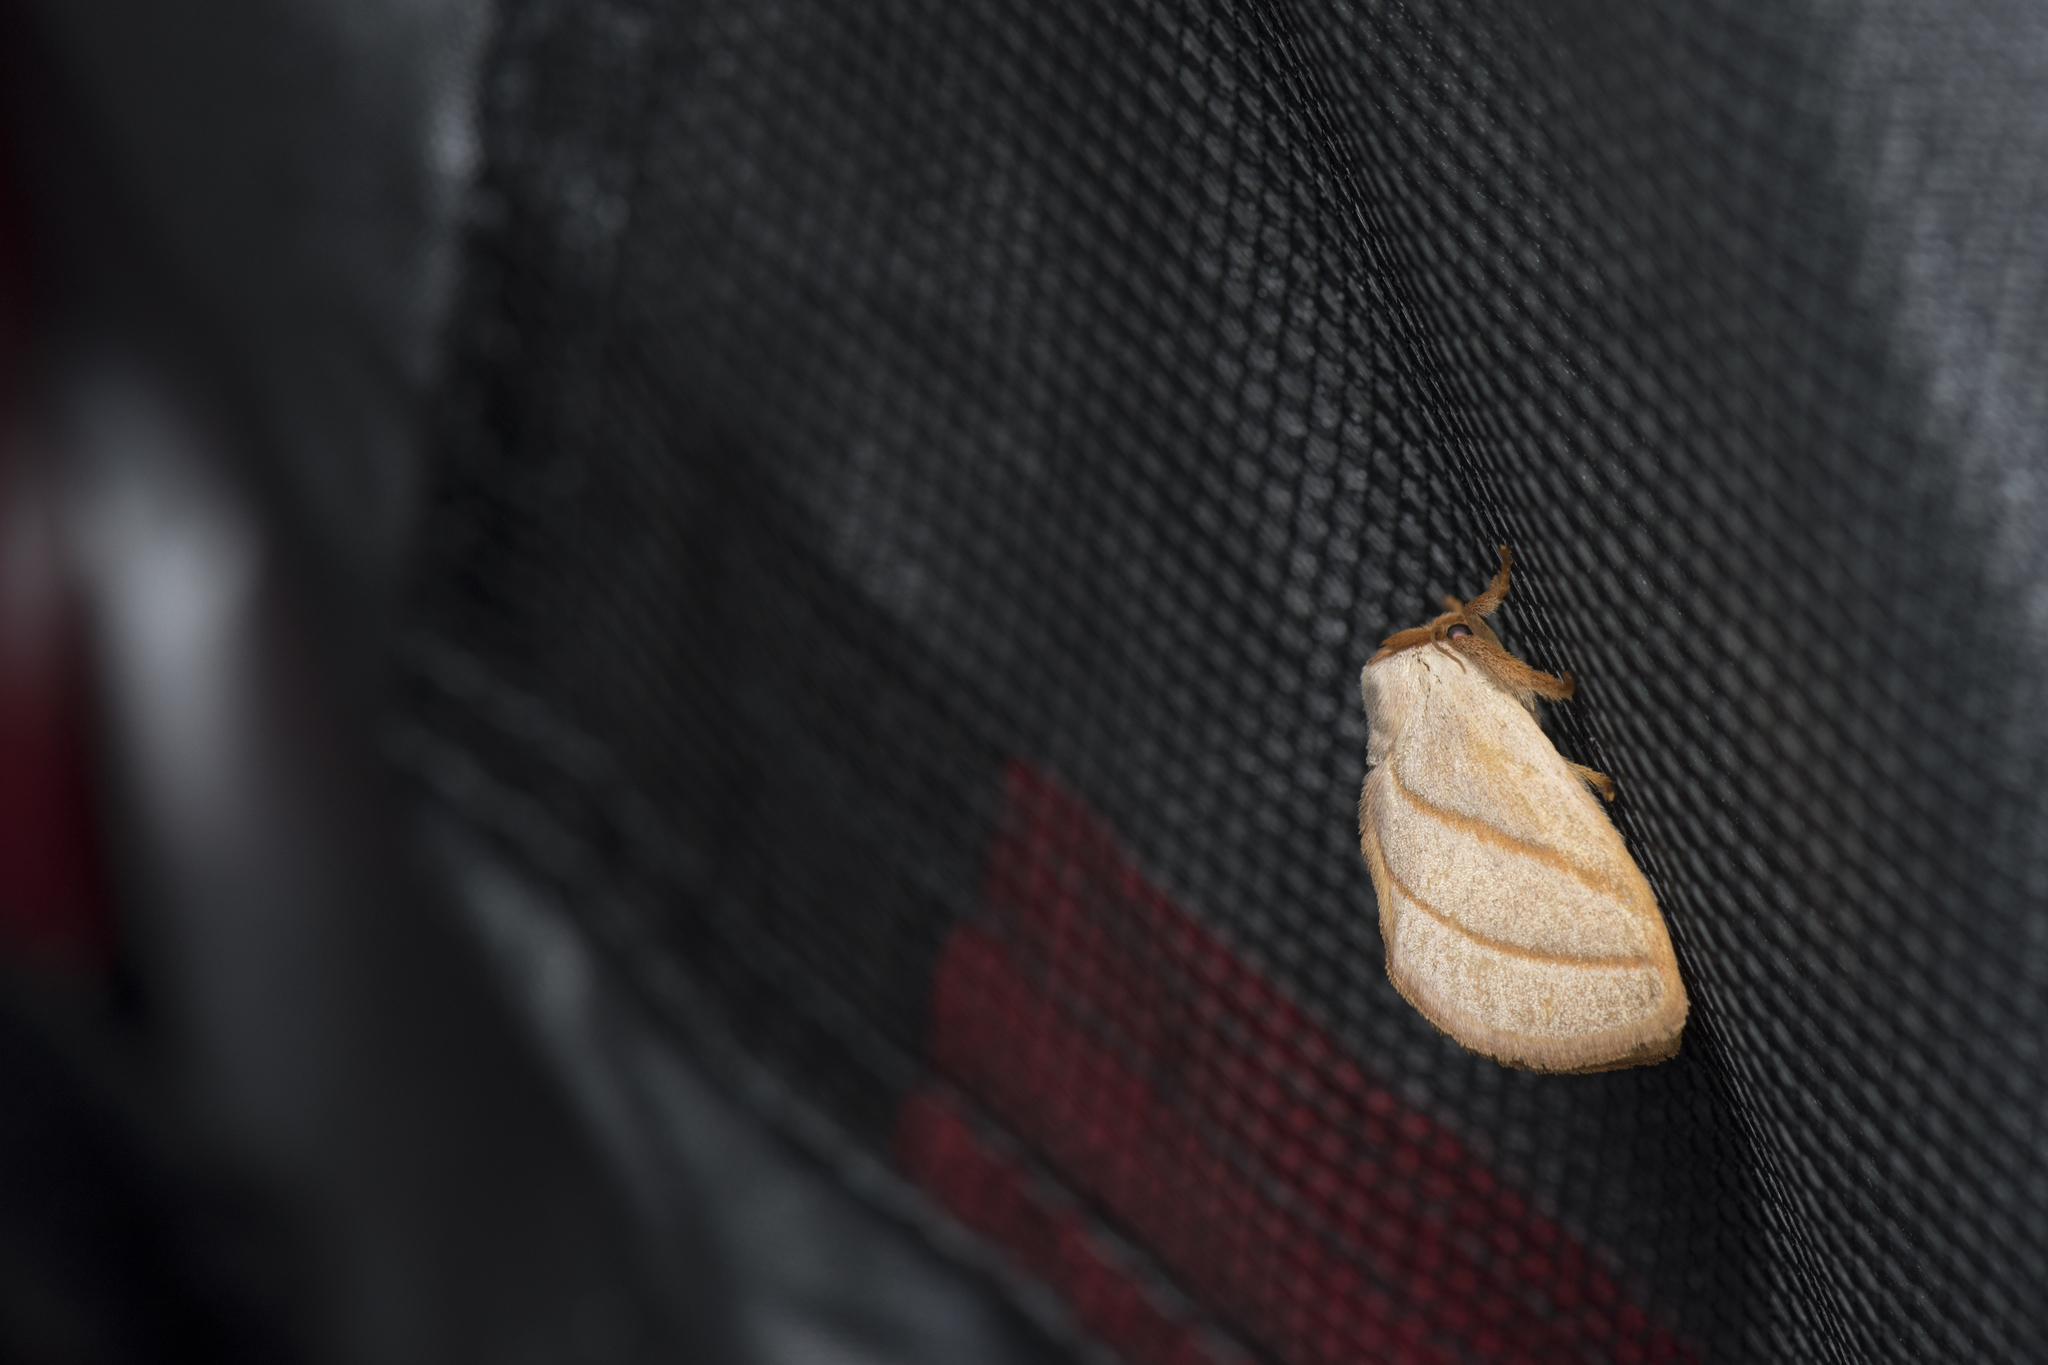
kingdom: Animalia
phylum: Arthropoda
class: Insecta
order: Lepidoptera
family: Limacodidae
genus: Cania
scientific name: Cania heppneri
